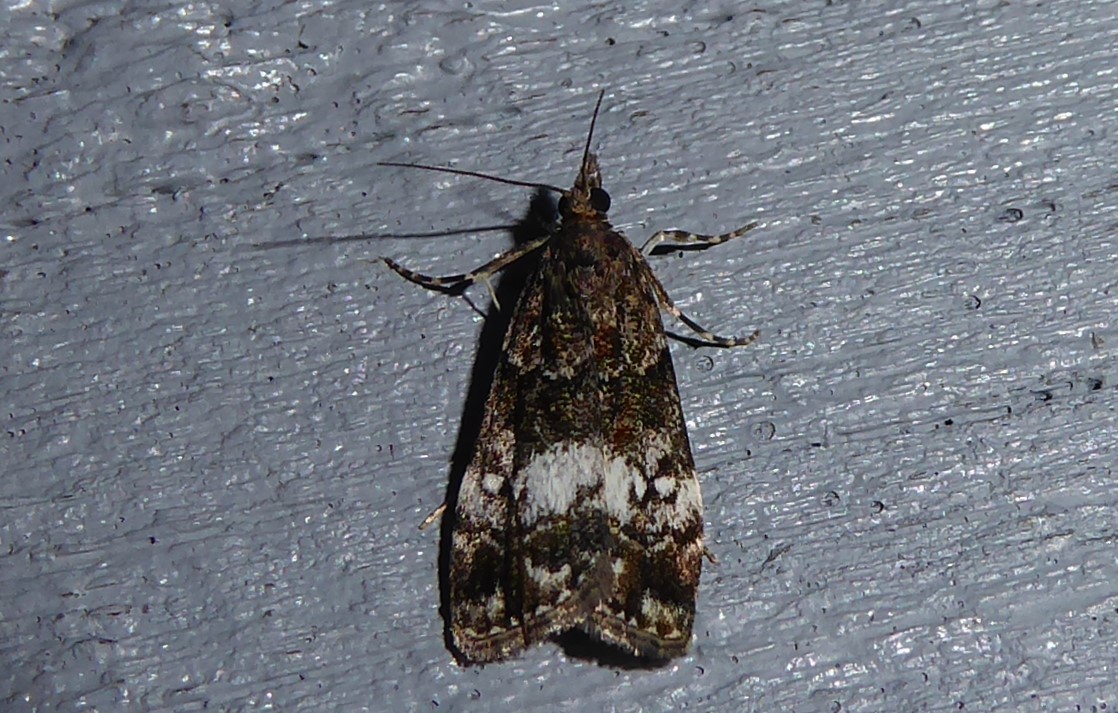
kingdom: Animalia
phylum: Arthropoda
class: Insecta
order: Lepidoptera
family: Crambidae
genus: Eudonia
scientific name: Eudonia dinodes
